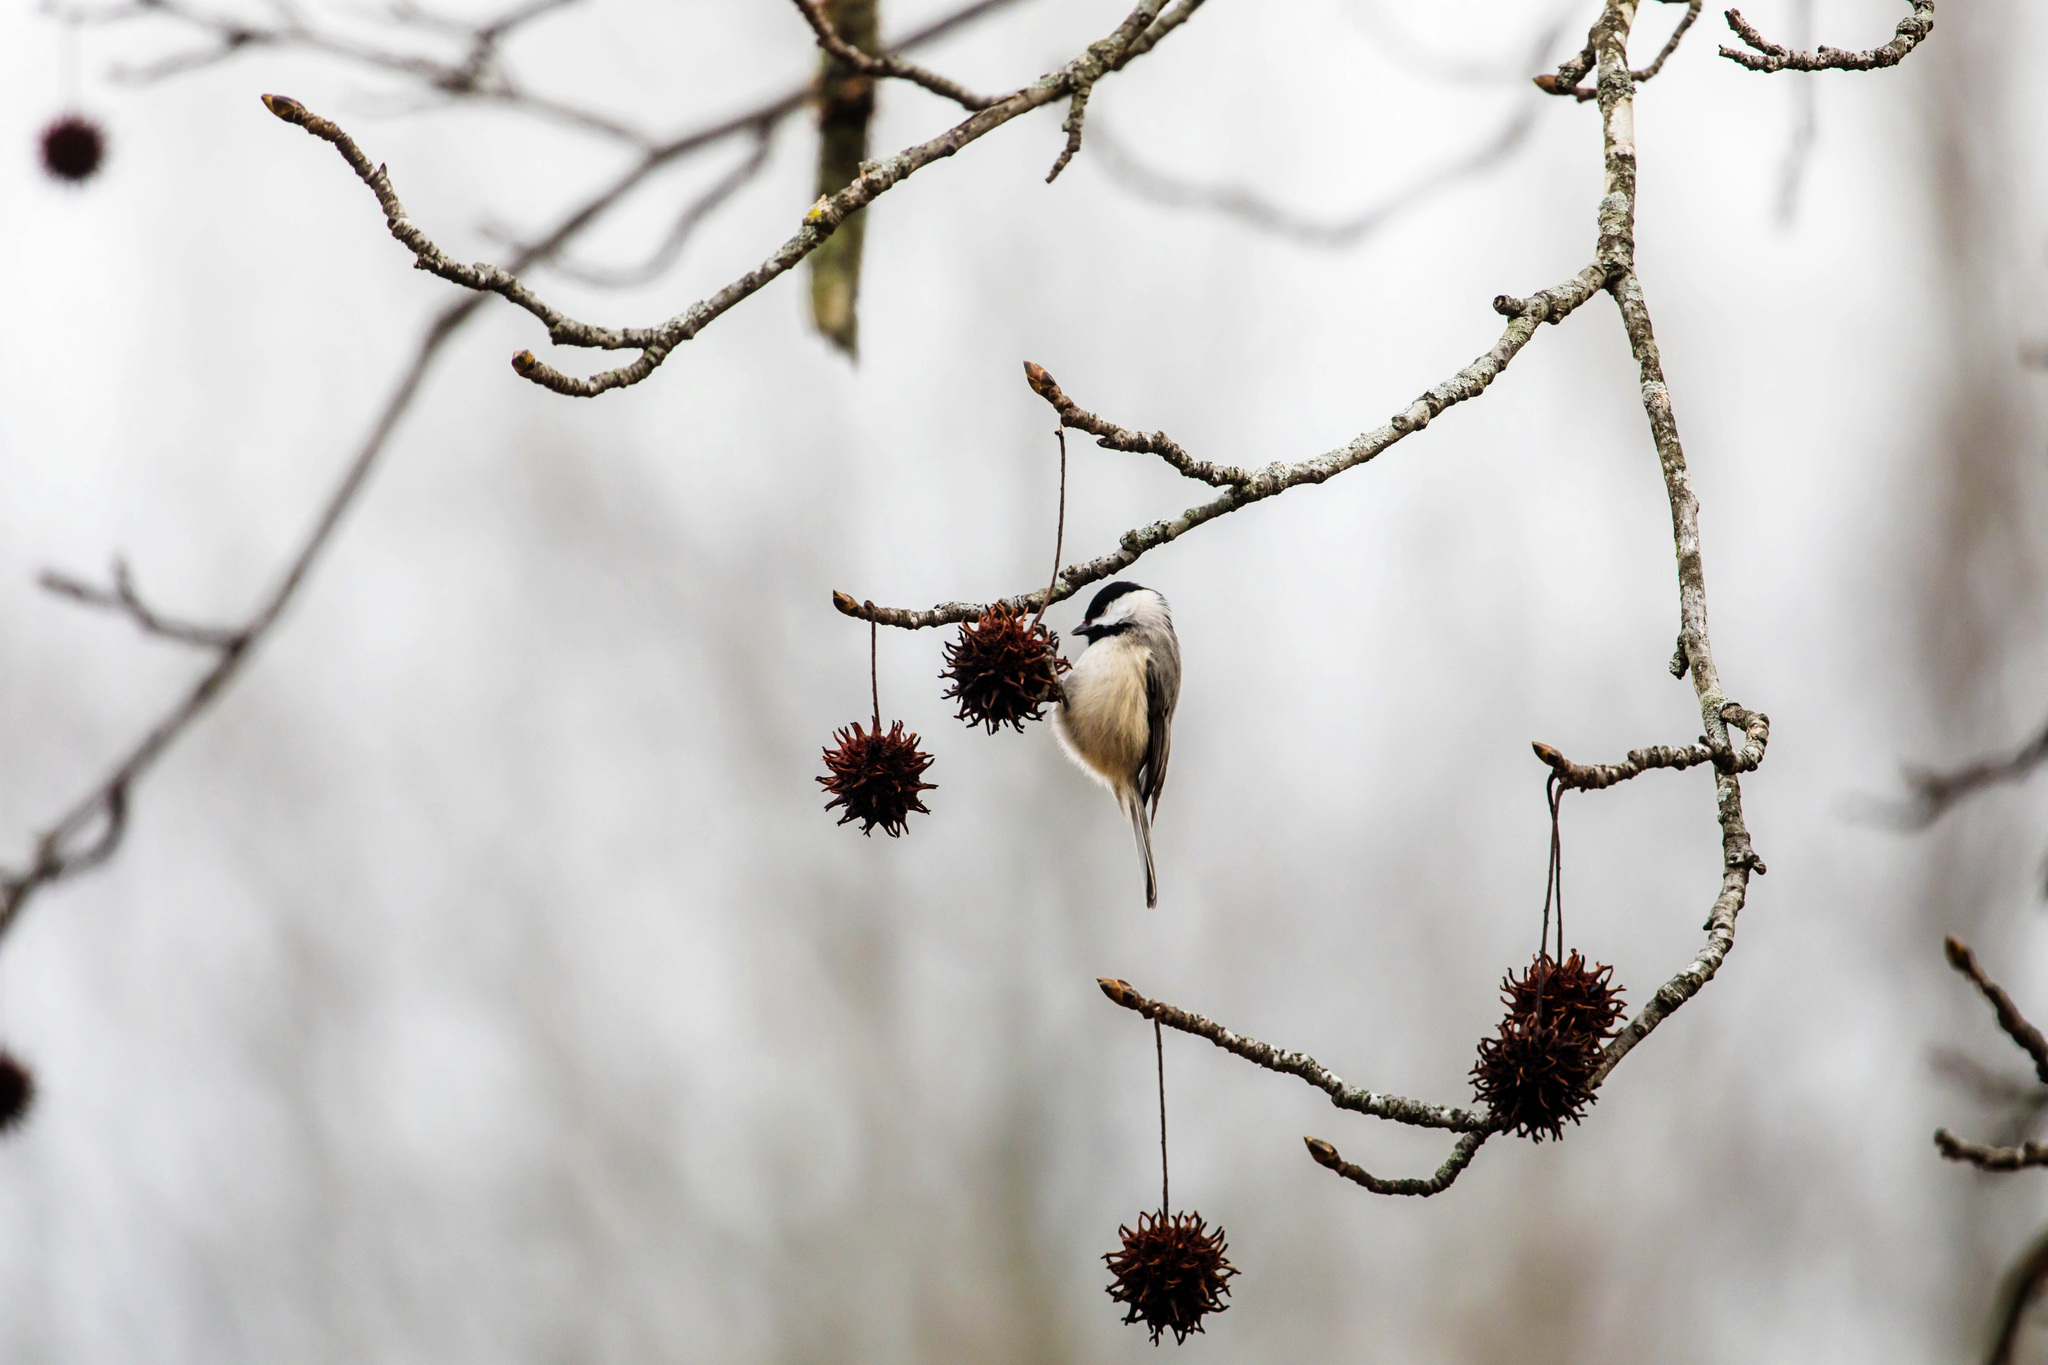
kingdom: Animalia
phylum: Chordata
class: Aves
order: Passeriformes
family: Paridae
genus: Poecile
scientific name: Poecile carolinensis
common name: Carolina chickadee
